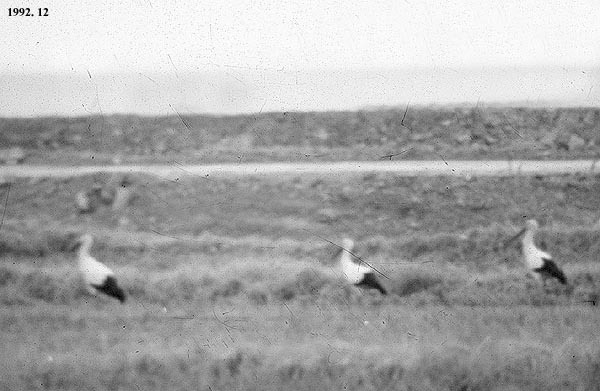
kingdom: Animalia
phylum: Chordata
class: Aves
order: Ciconiiformes
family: Ciconiidae
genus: Ciconia
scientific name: Ciconia boyciana
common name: Oriental stork
